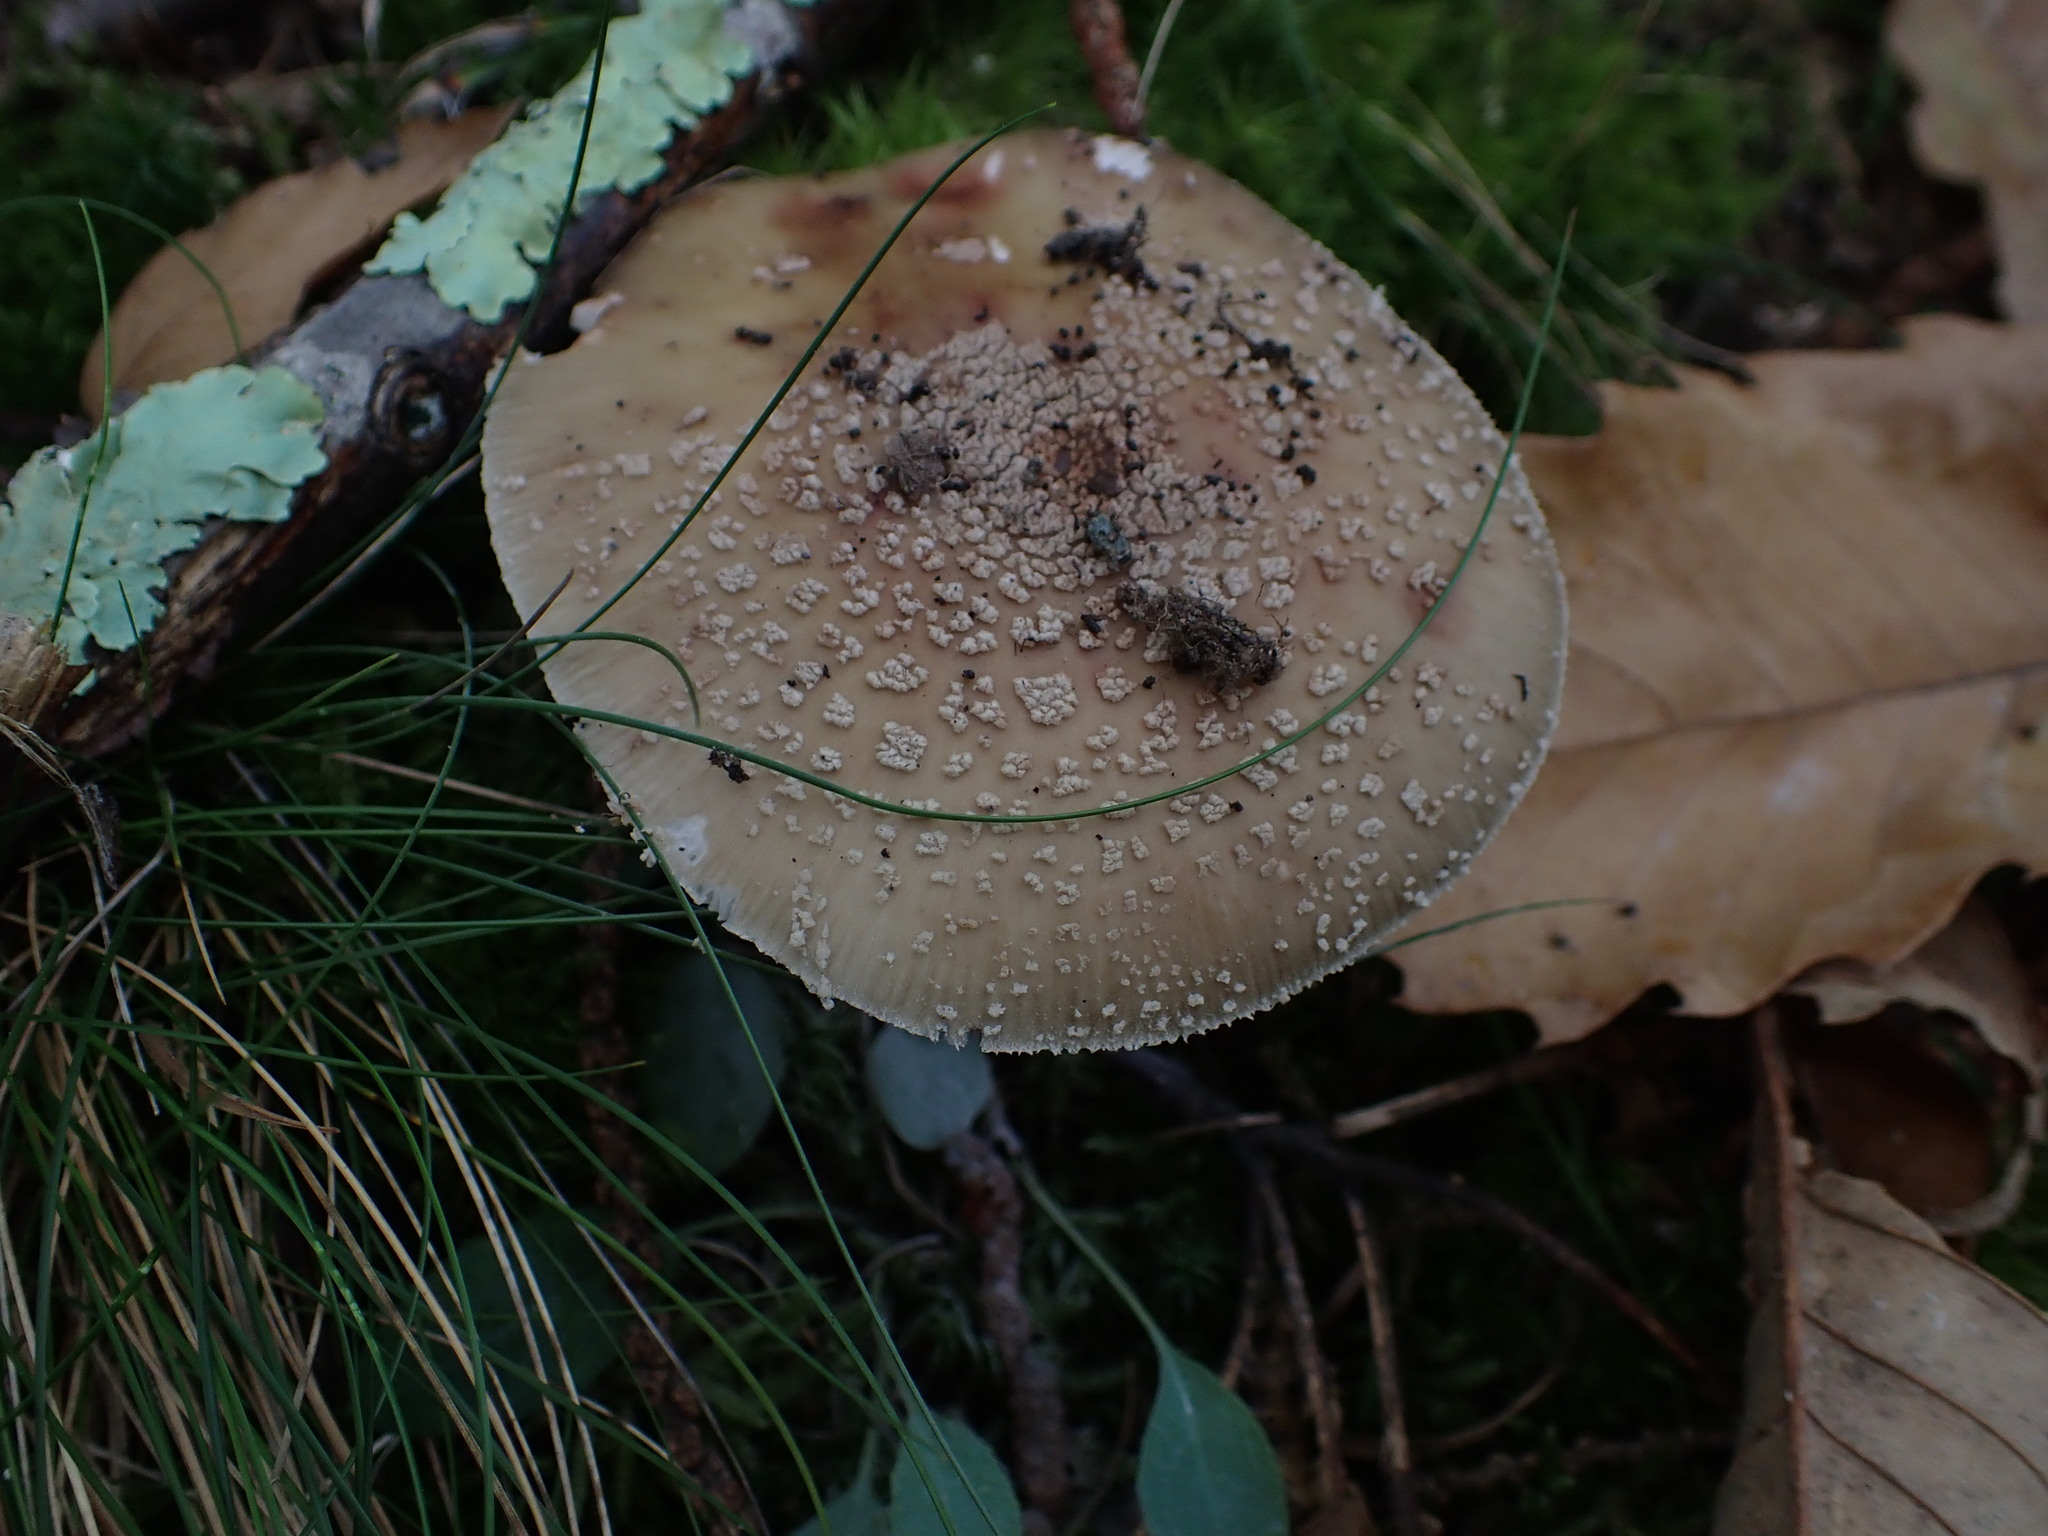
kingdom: Fungi
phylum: Basidiomycota
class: Agaricomycetes
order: Agaricales
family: Amanitaceae
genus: Amanita
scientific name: Amanita rubescens
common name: Blusher
